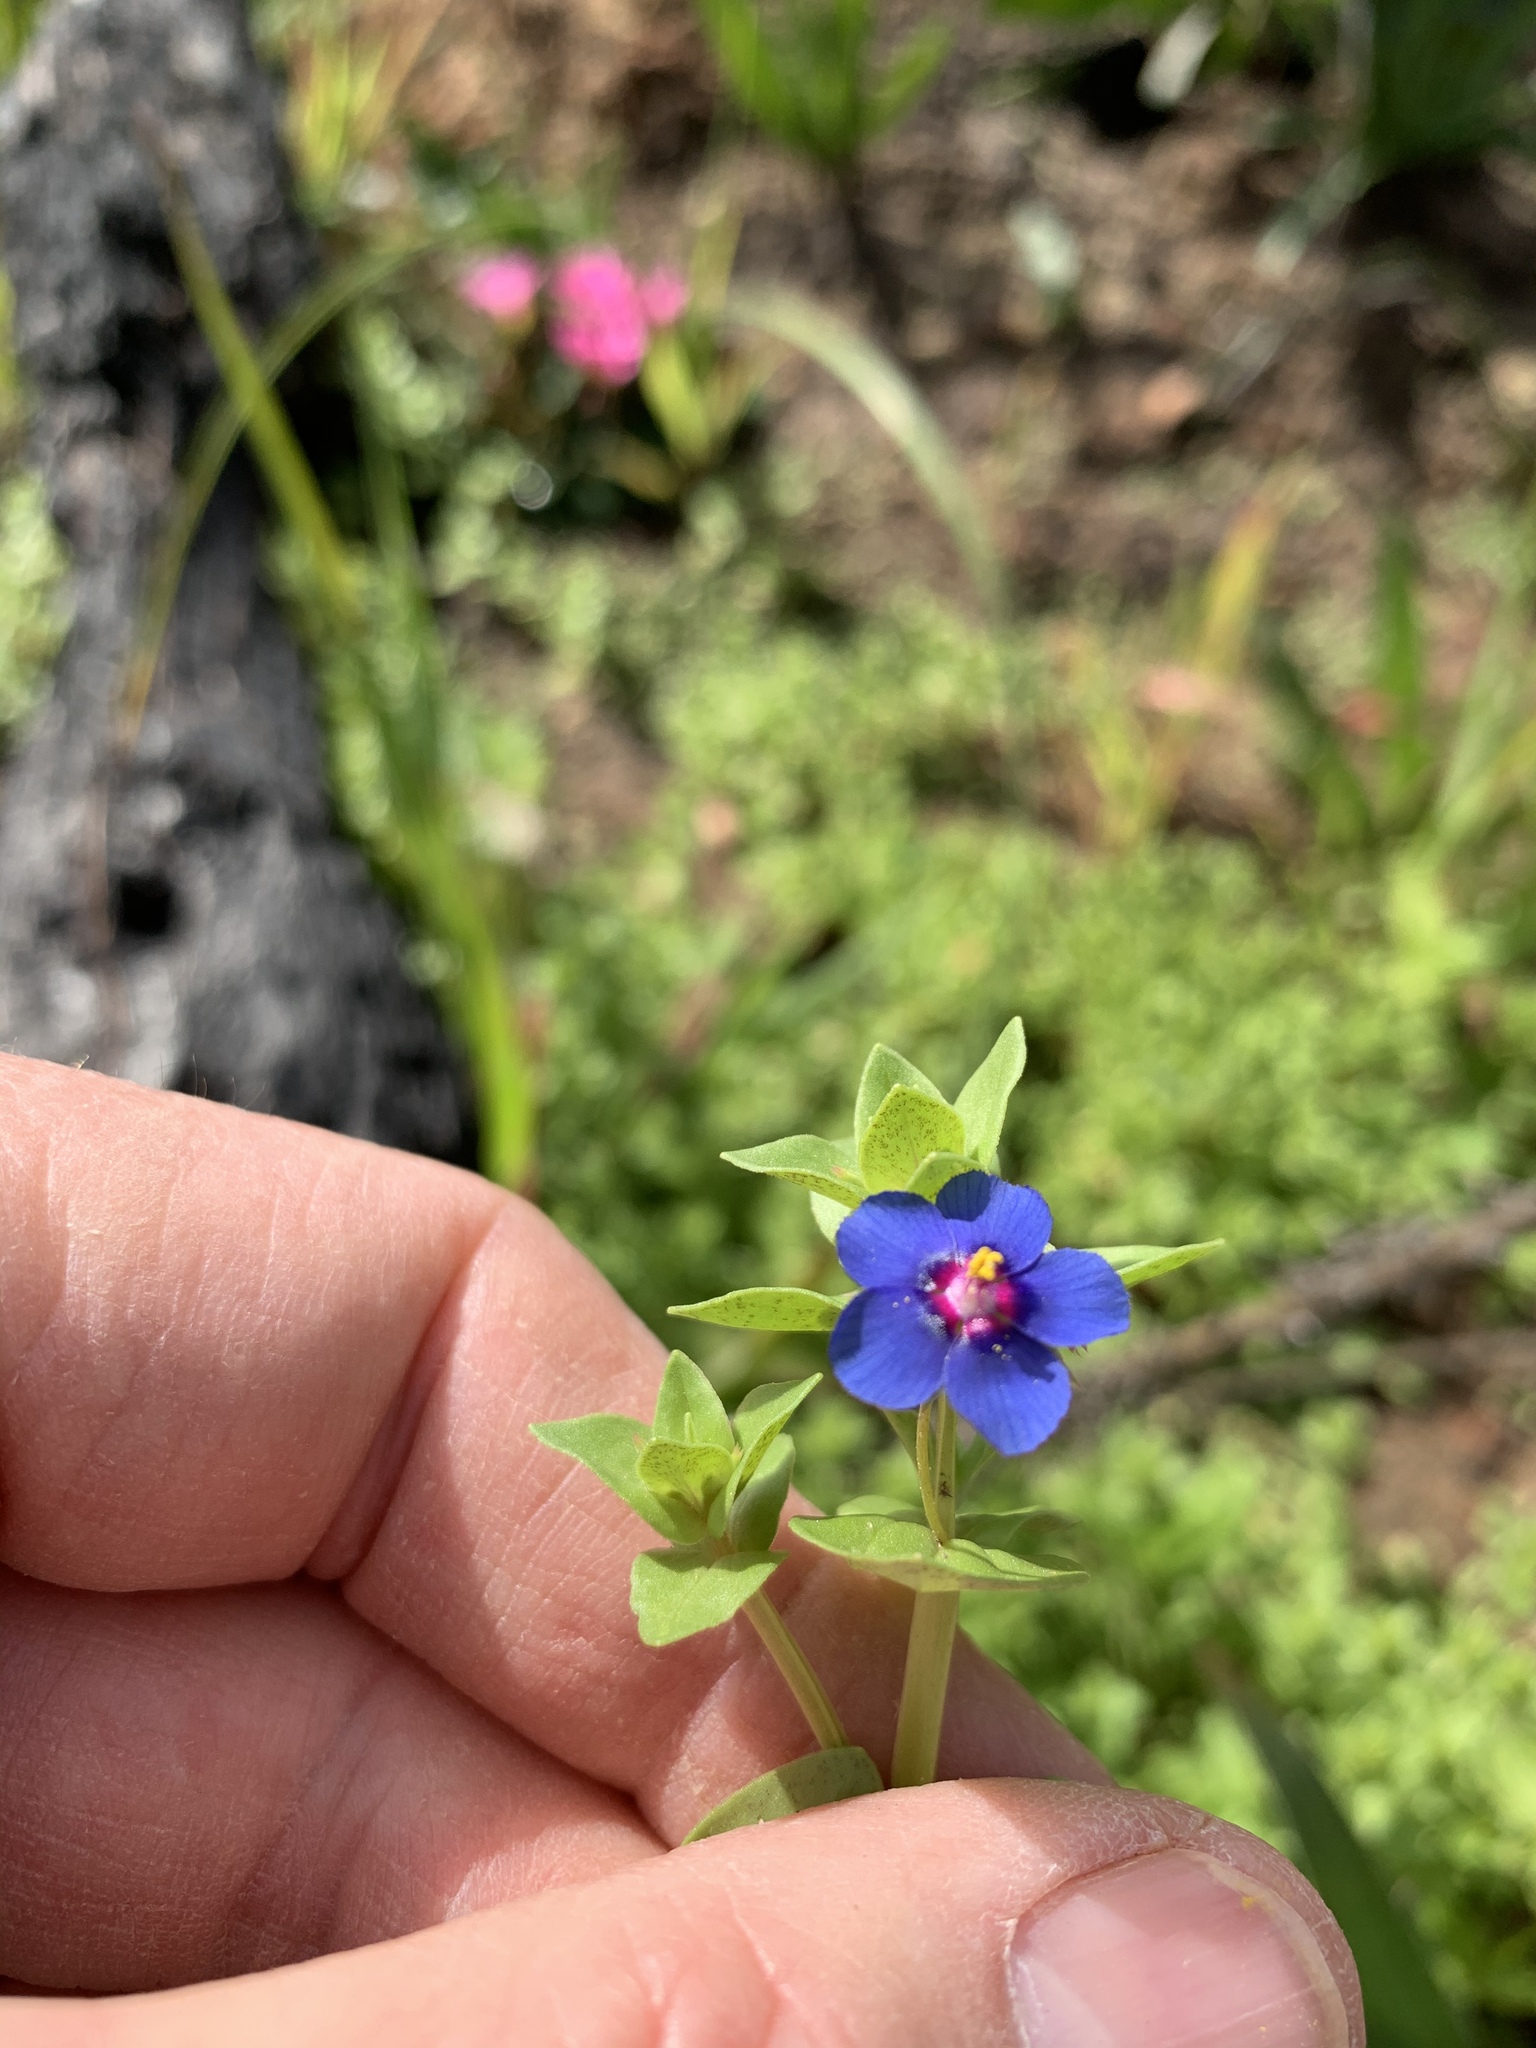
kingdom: Plantae
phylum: Tracheophyta
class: Magnoliopsida
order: Ericales
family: Primulaceae
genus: Lysimachia
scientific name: Lysimachia loeflingii
